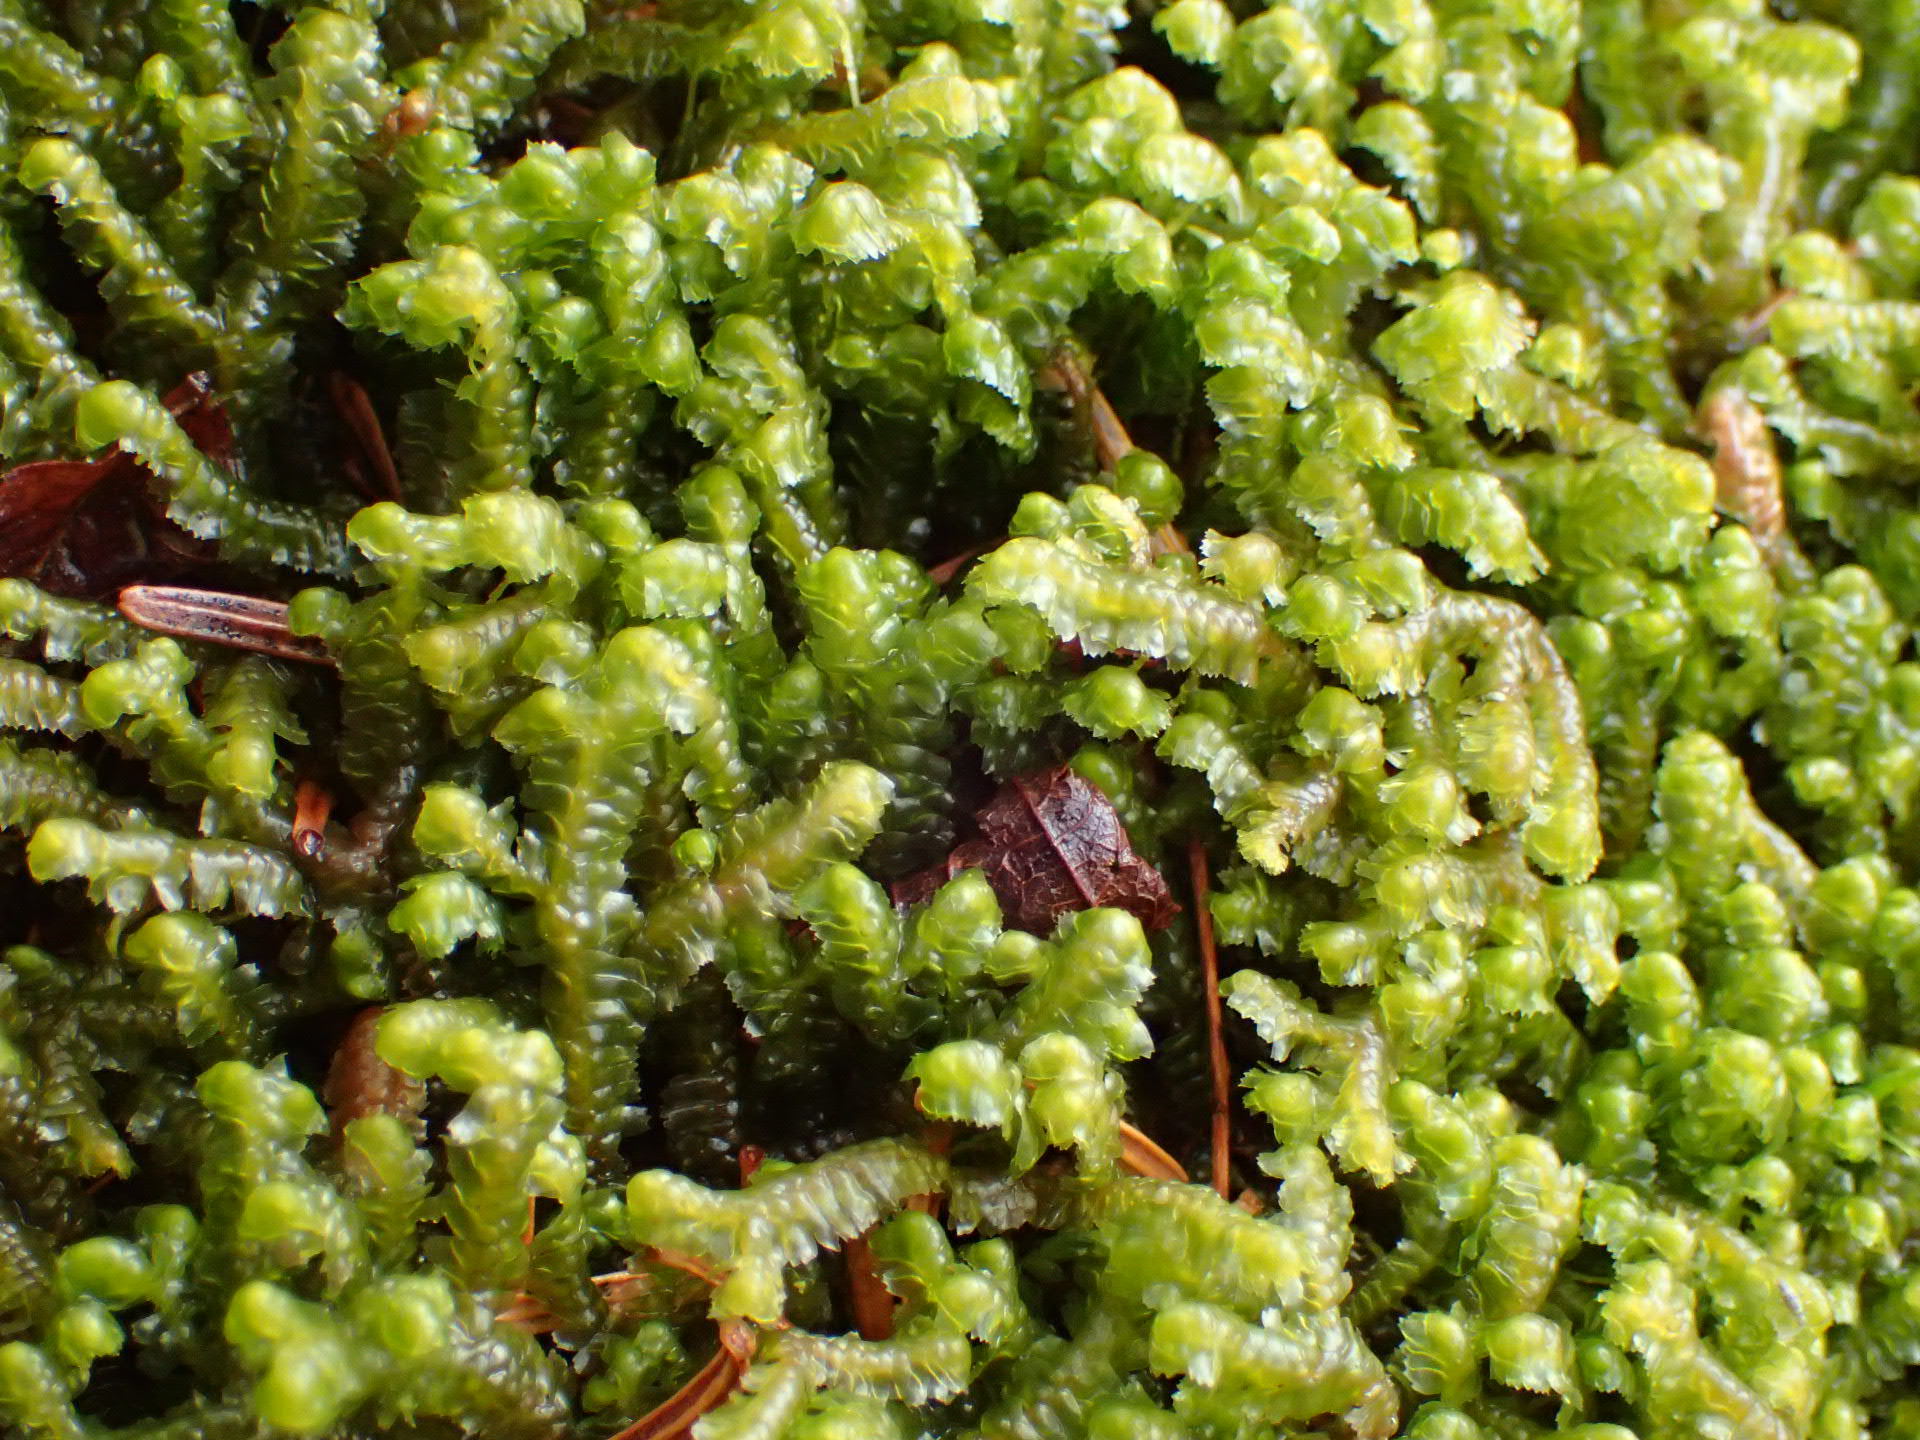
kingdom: Plantae
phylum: Marchantiophyta
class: Jungermanniopsida
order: Jungermanniales
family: Lepidoziaceae
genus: Bazzania
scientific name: Bazzania trilobata
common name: Three-lobed whipwort
